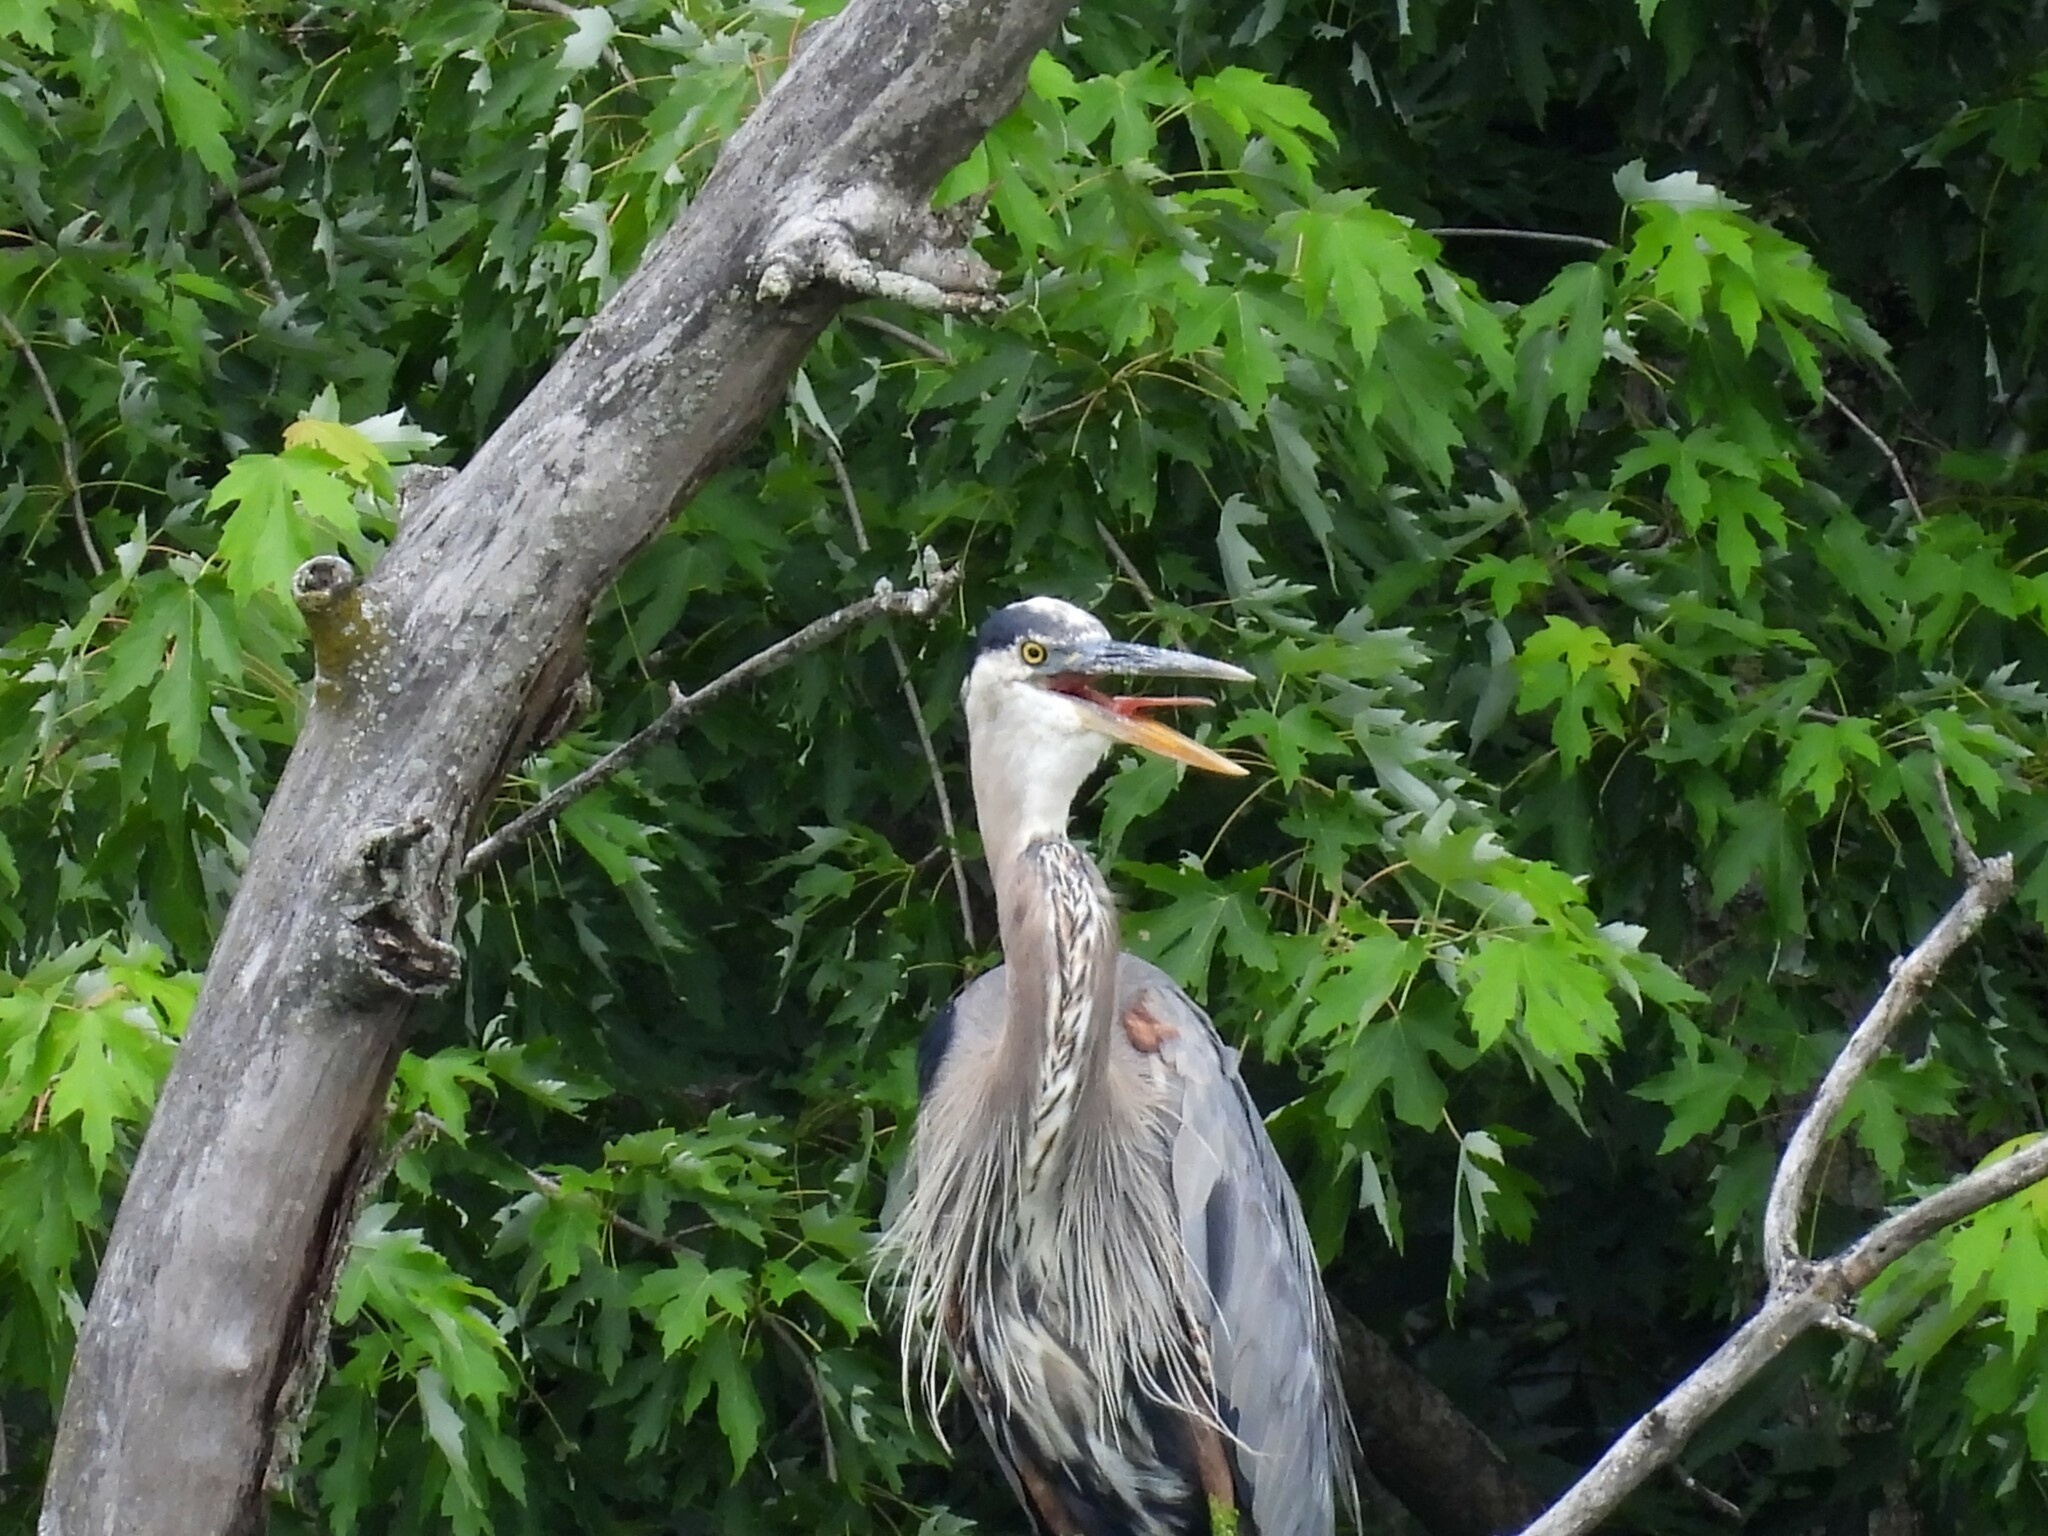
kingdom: Animalia
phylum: Chordata
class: Aves
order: Pelecaniformes
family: Ardeidae
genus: Ardea
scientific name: Ardea herodias
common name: Great blue heron
